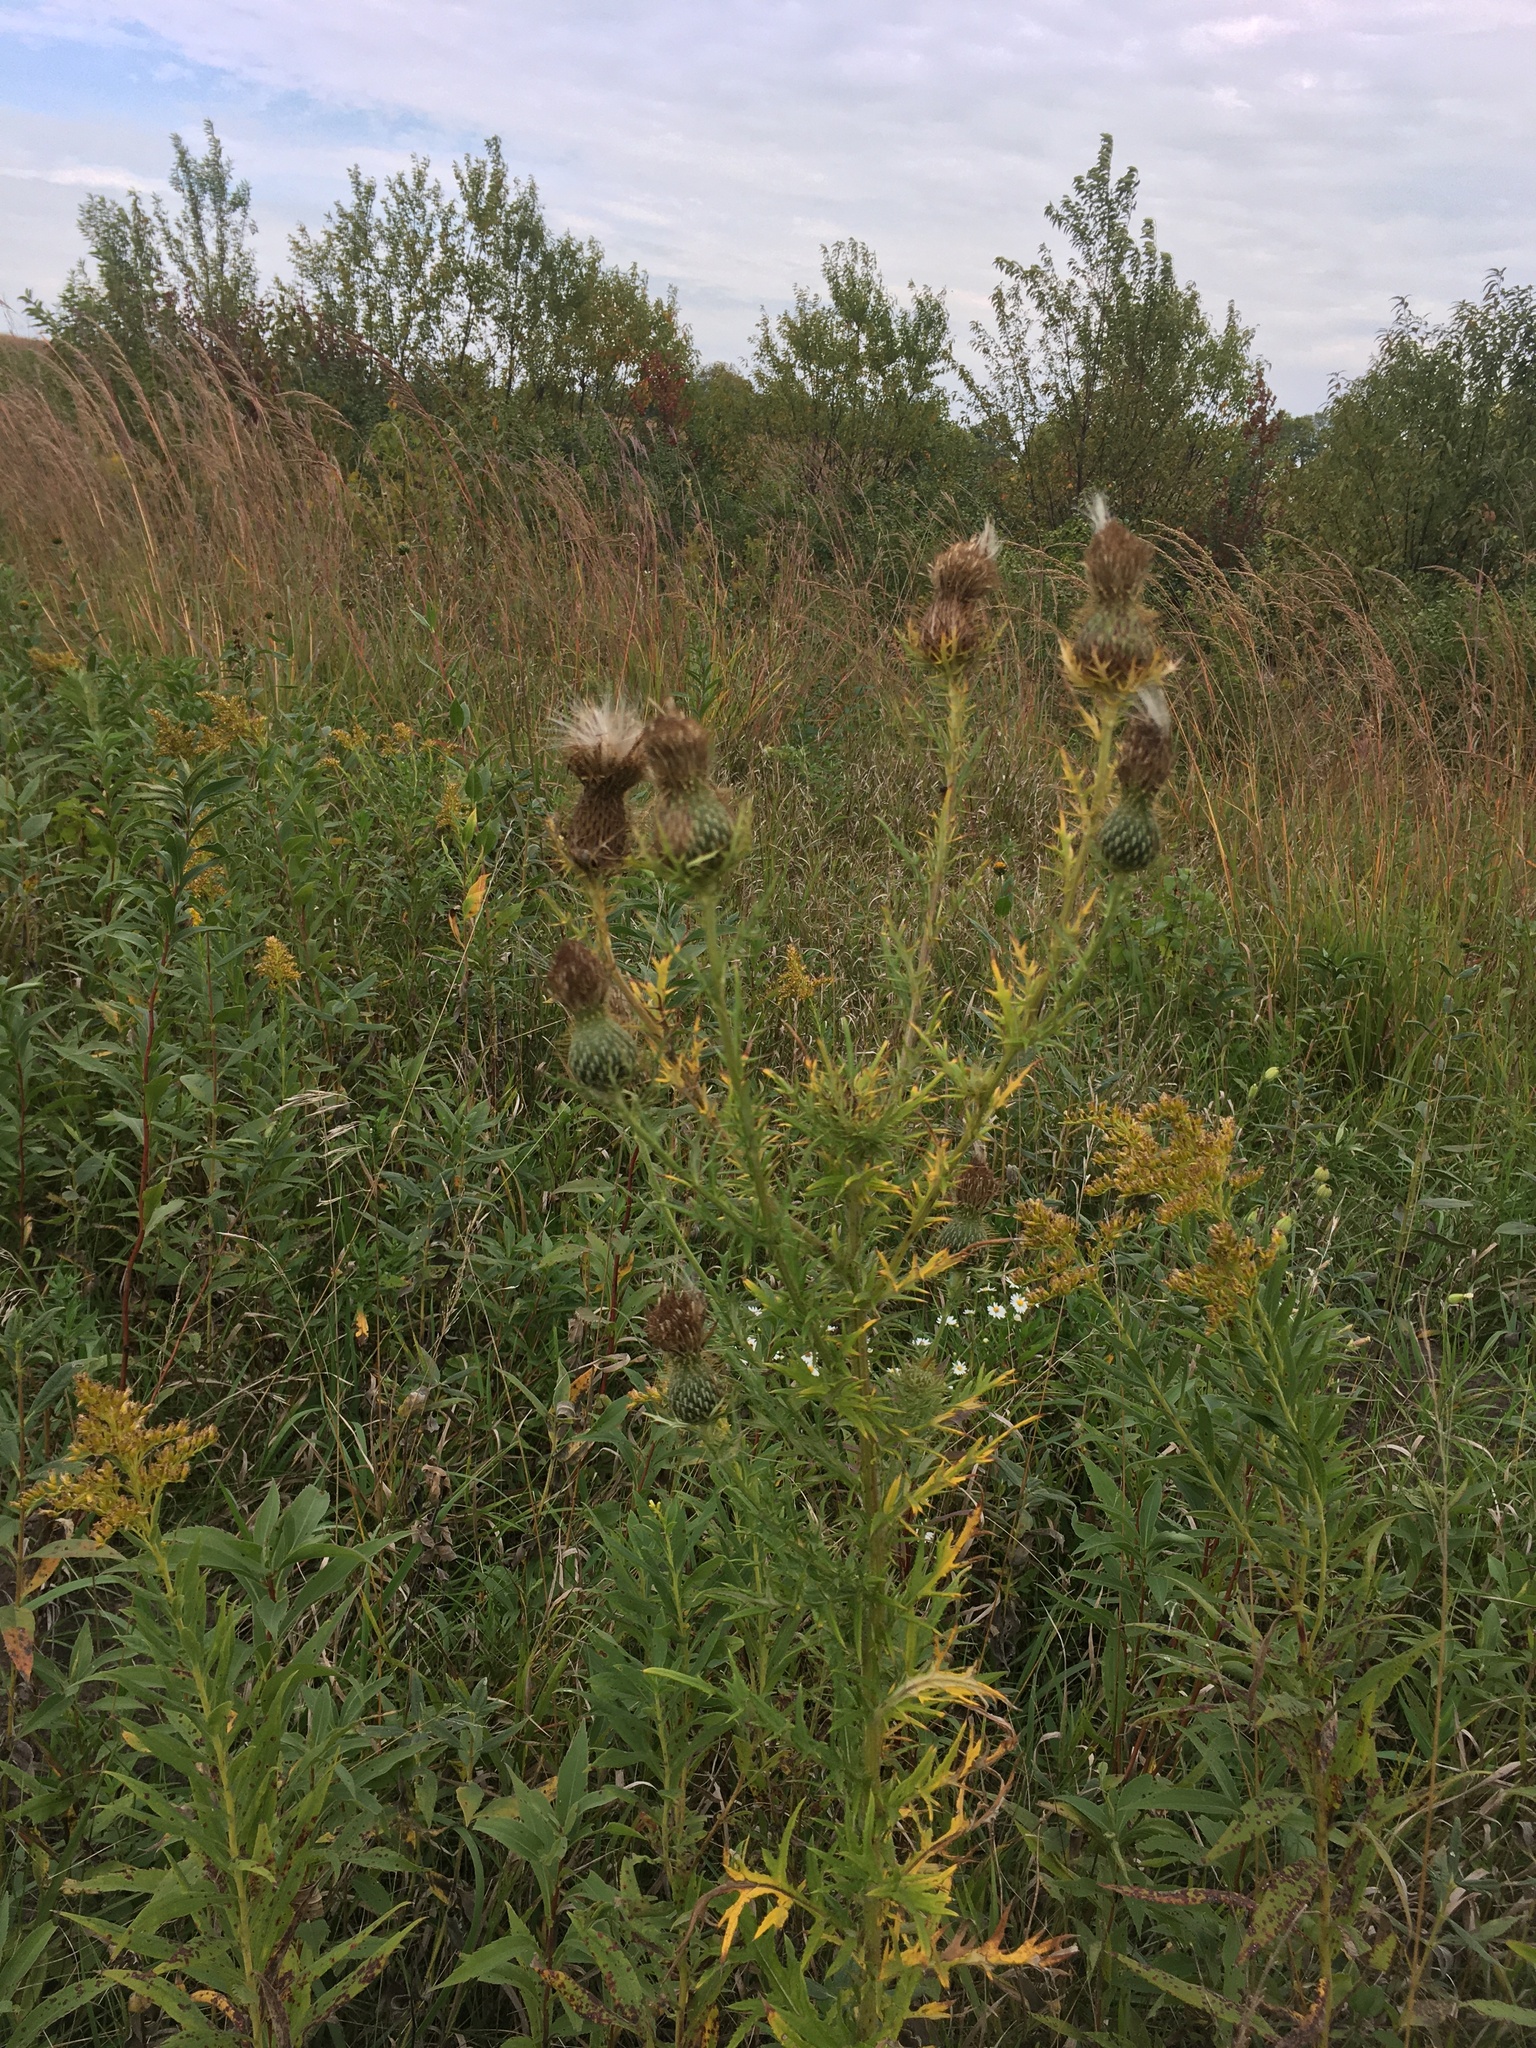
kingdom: Plantae
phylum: Tracheophyta
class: Magnoliopsida
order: Asterales
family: Asteraceae
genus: Cirsium
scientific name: Cirsium discolor
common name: Field thistle
